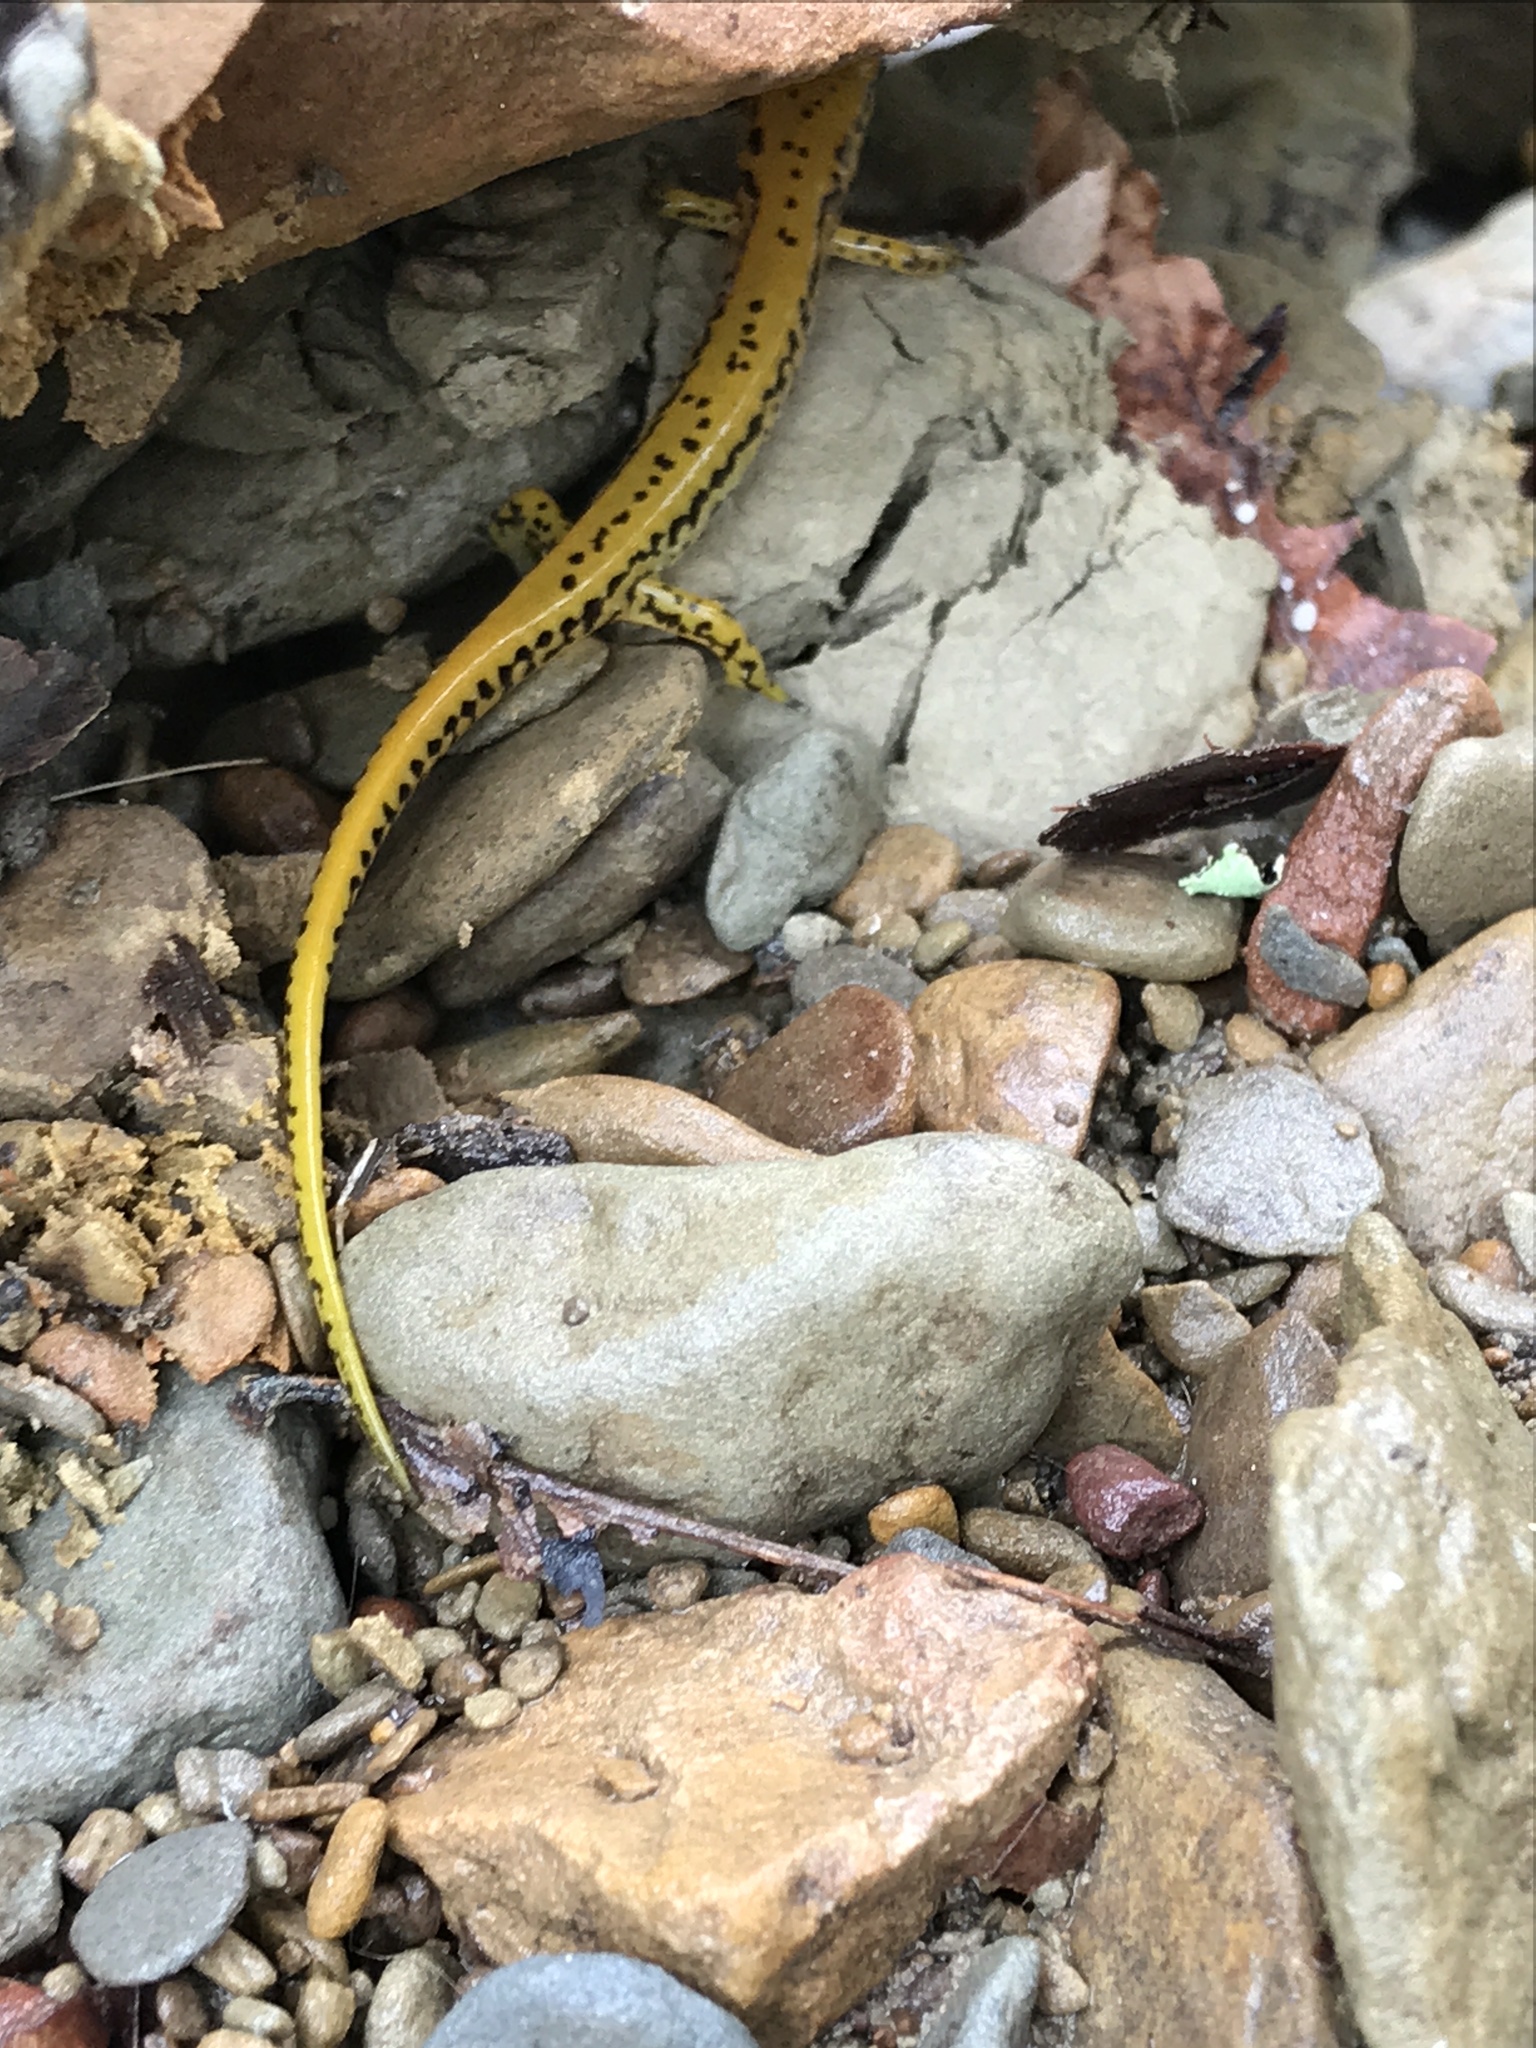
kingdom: Animalia
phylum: Chordata
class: Amphibia
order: Caudata
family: Plethodontidae
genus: Eurycea
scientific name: Eurycea longicauda
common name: Long-tailed salamander
